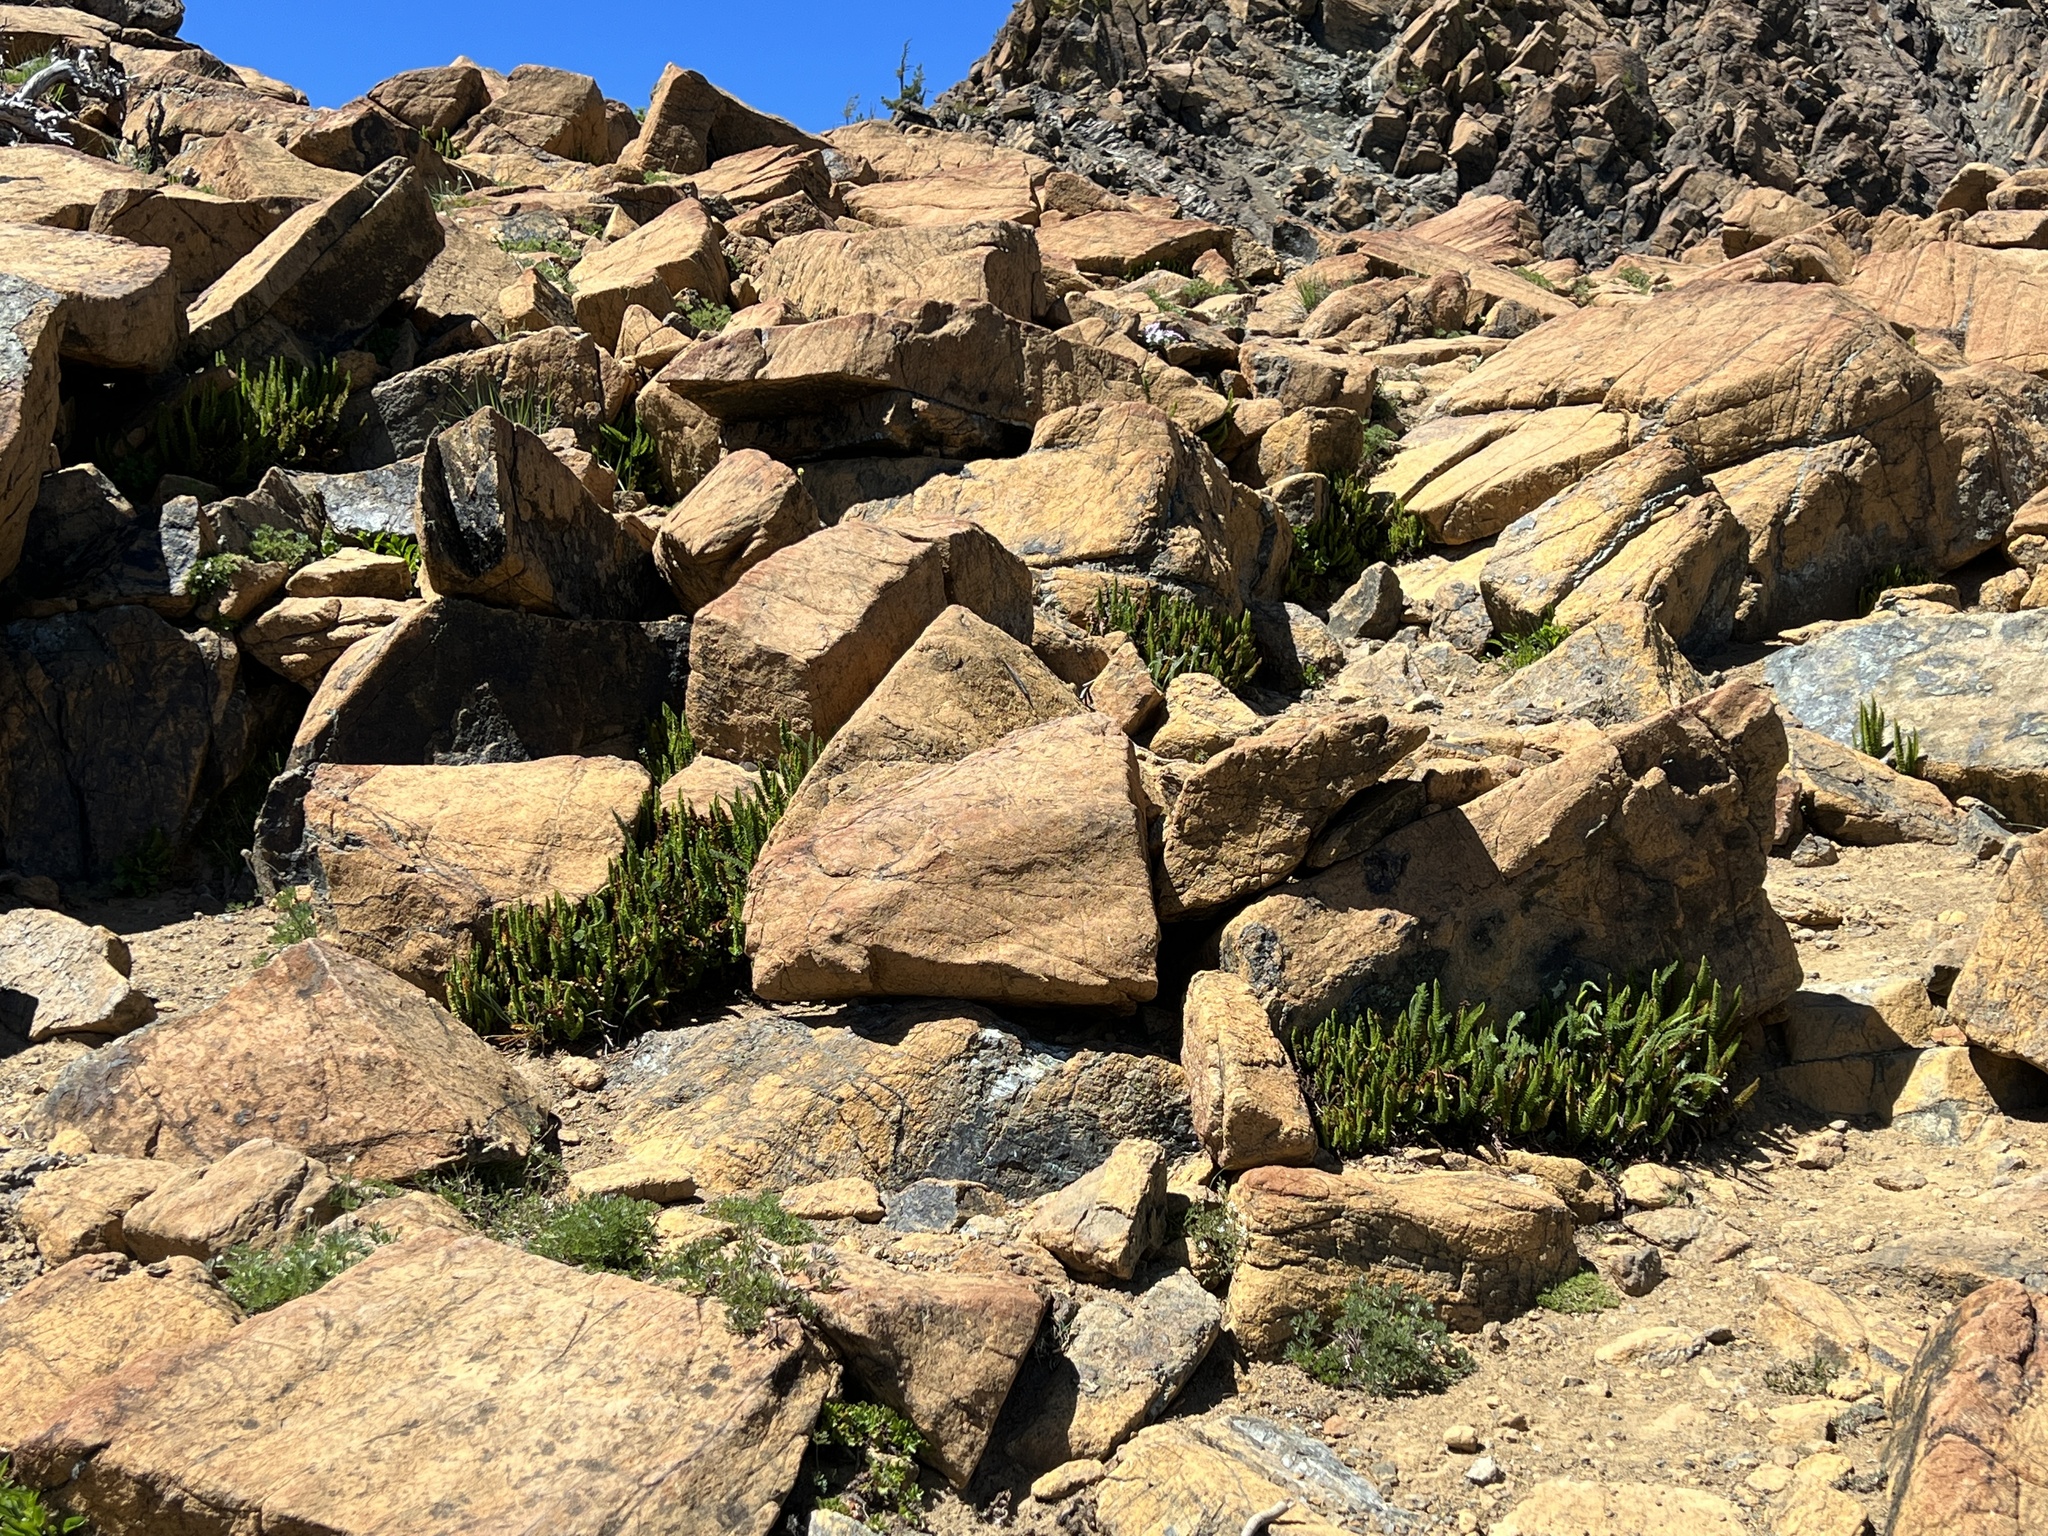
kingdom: Plantae
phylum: Tracheophyta
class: Polypodiopsida
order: Polypodiales
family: Dryopteridaceae
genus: Polystichum
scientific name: Polystichum lemmonii
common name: Lemmon's holly fern
